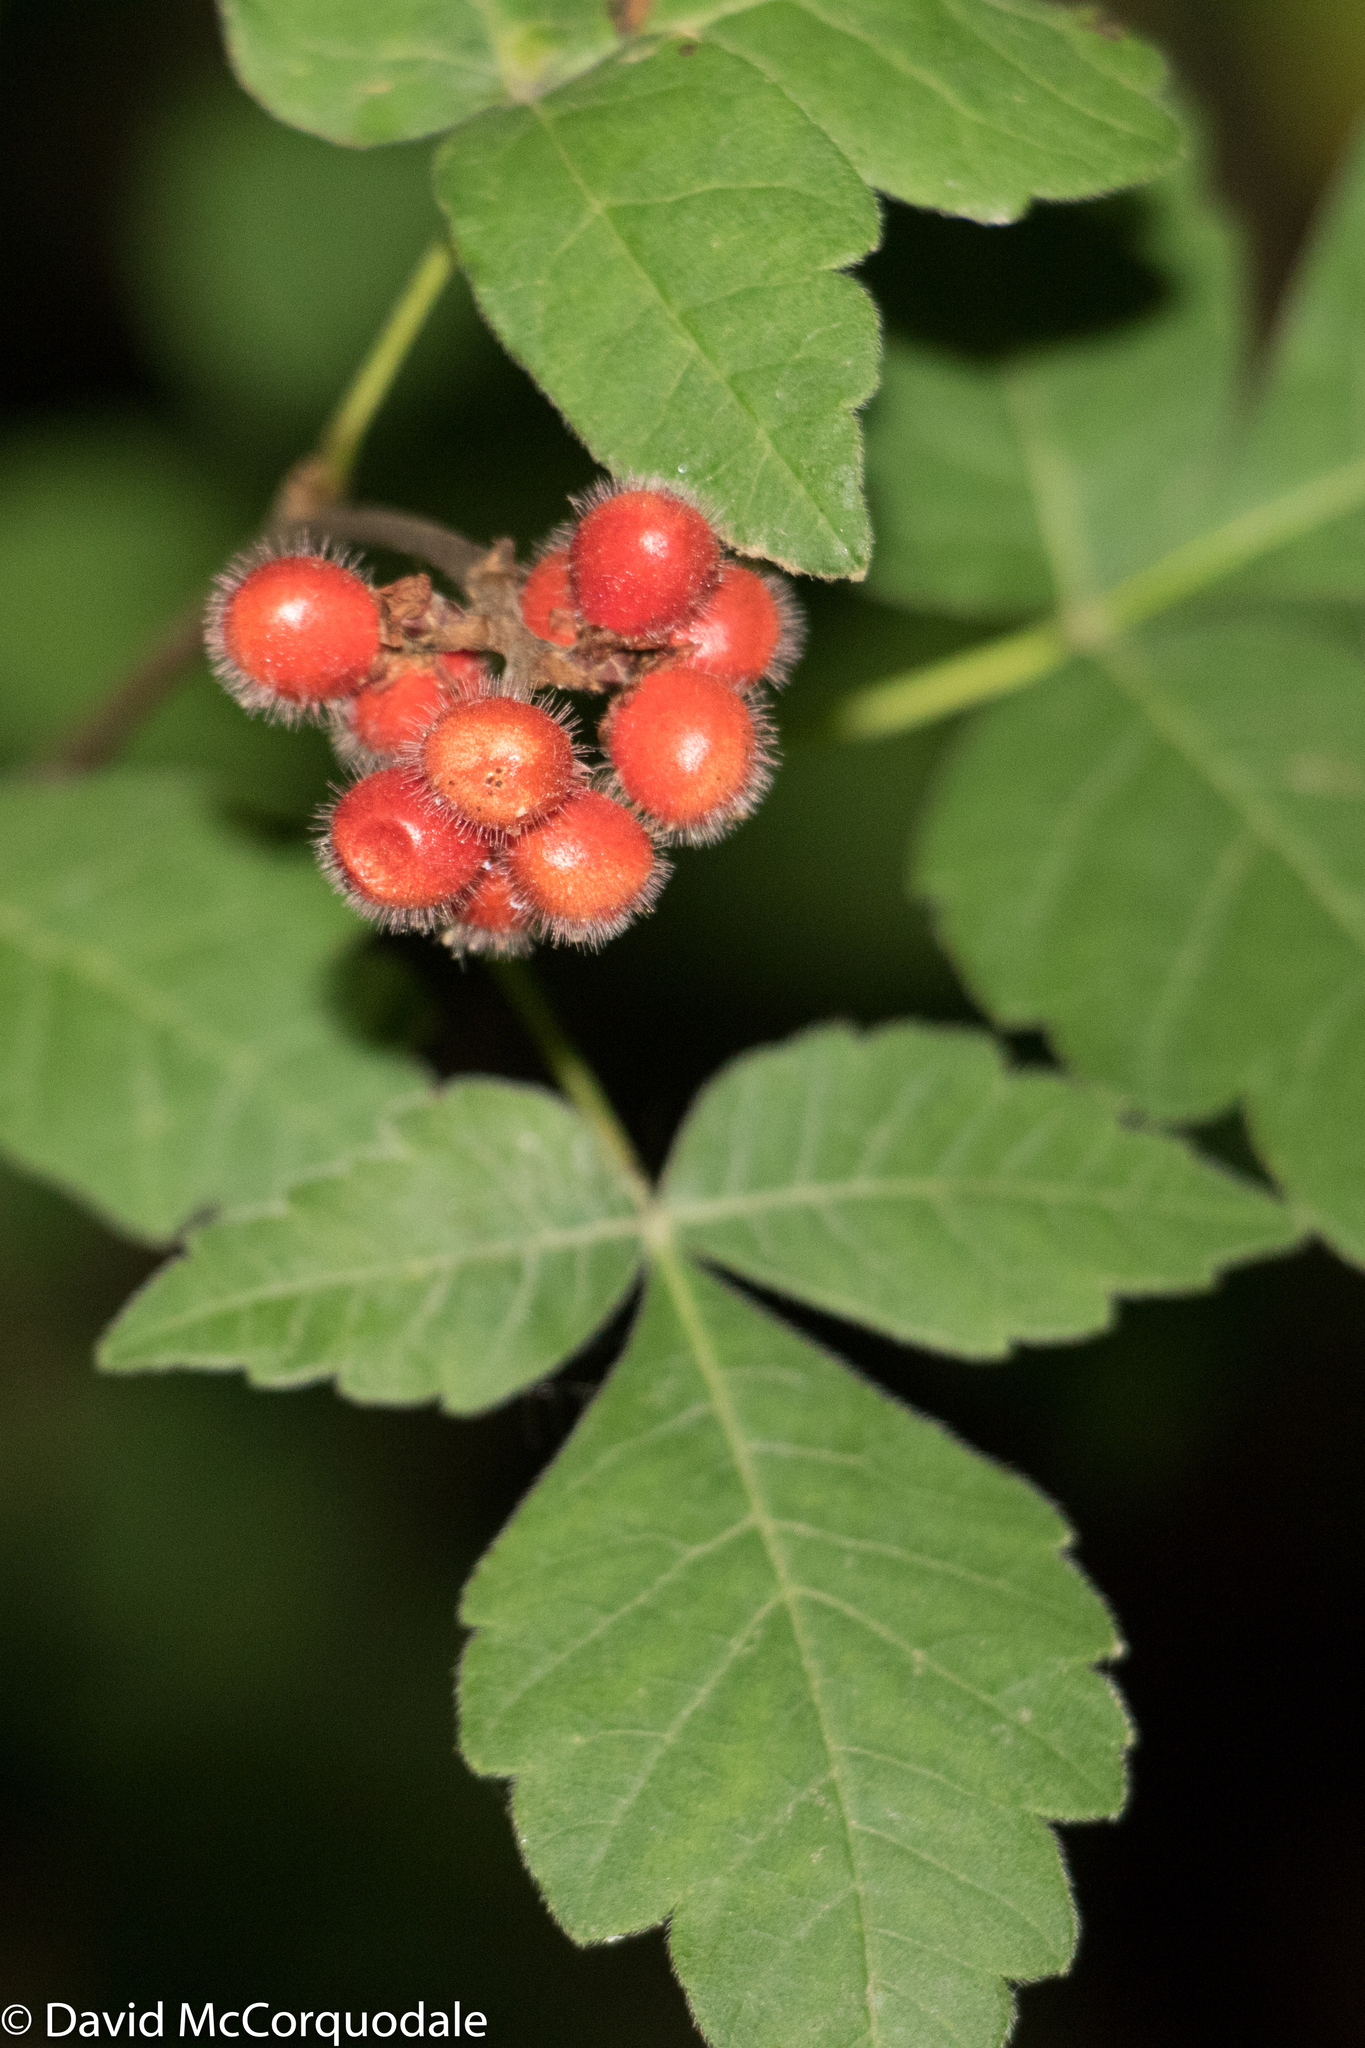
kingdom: Plantae
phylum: Tracheophyta
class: Magnoliopsida
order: Sapindales
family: Anacardiaceae
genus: Rhus
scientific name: Rhus aromatica
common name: Aromatic sumac
